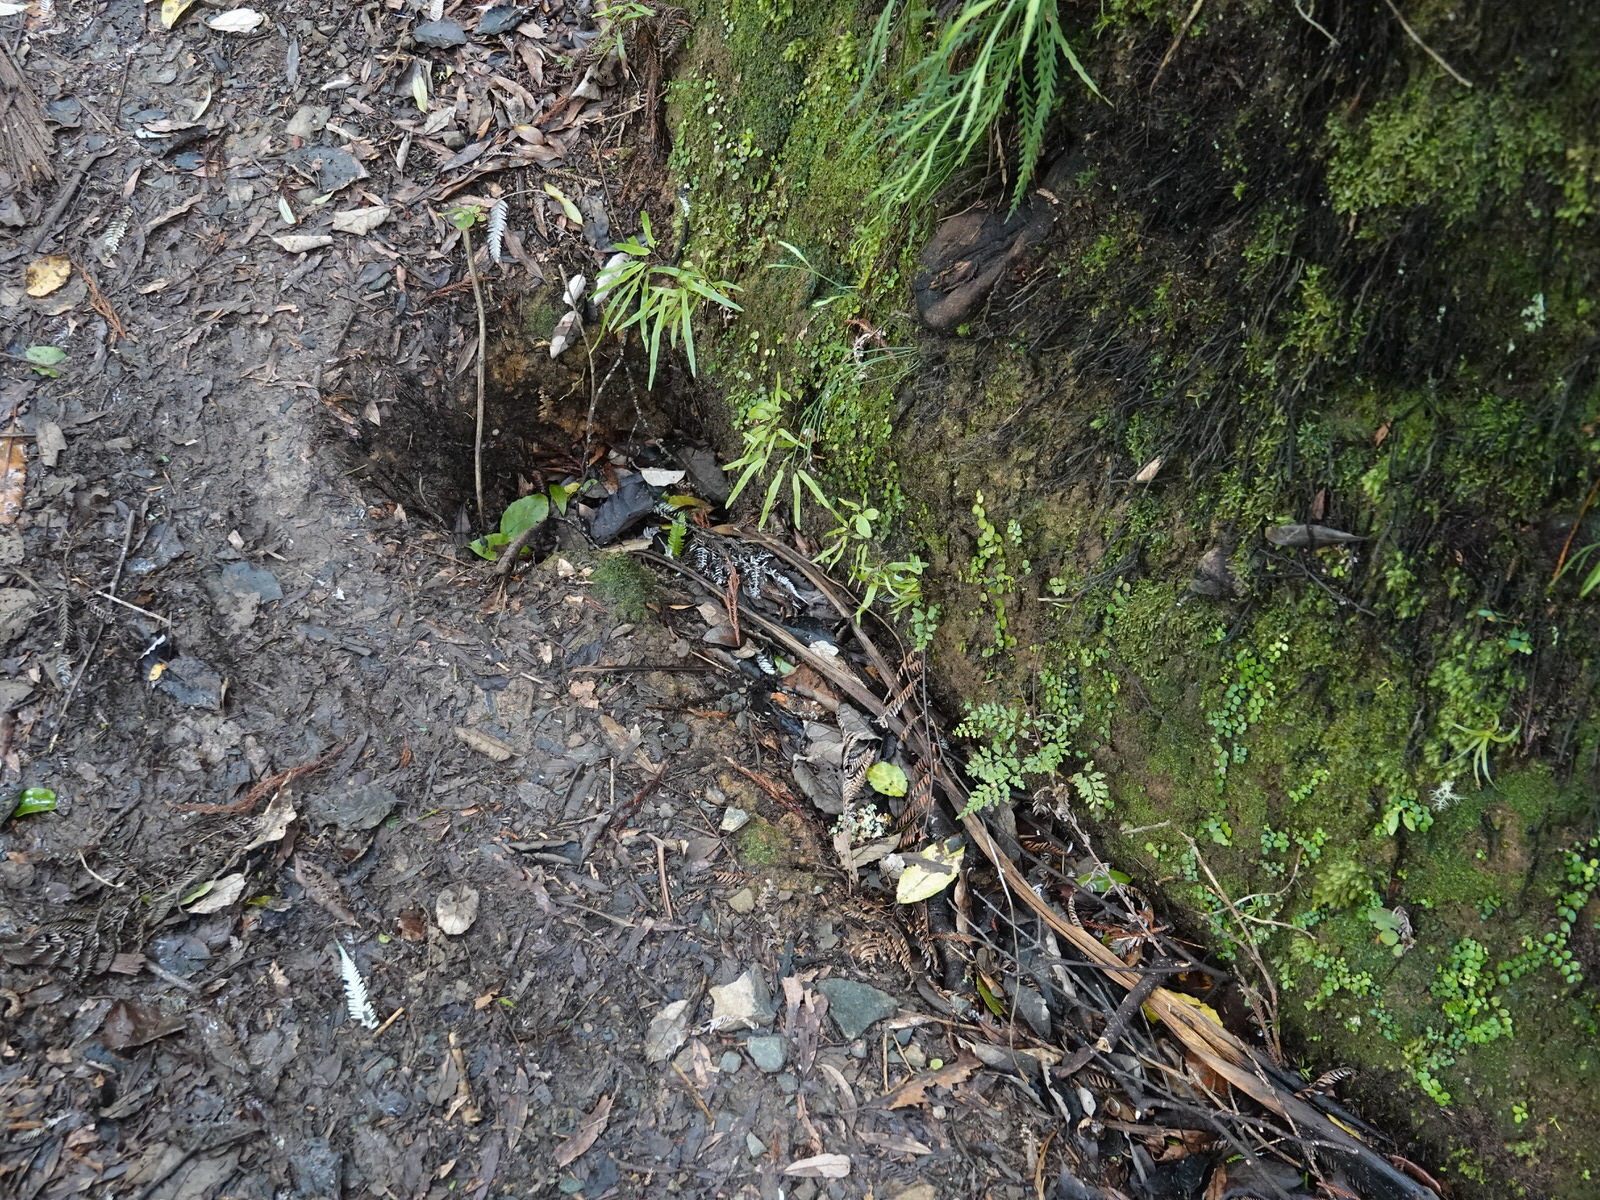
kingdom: Plantae
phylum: Tracheophyta
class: Polypodiopsida
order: Polypodiales
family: Lindsaeaceae
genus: Lindsaea
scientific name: Lindsaea trichomanoides
